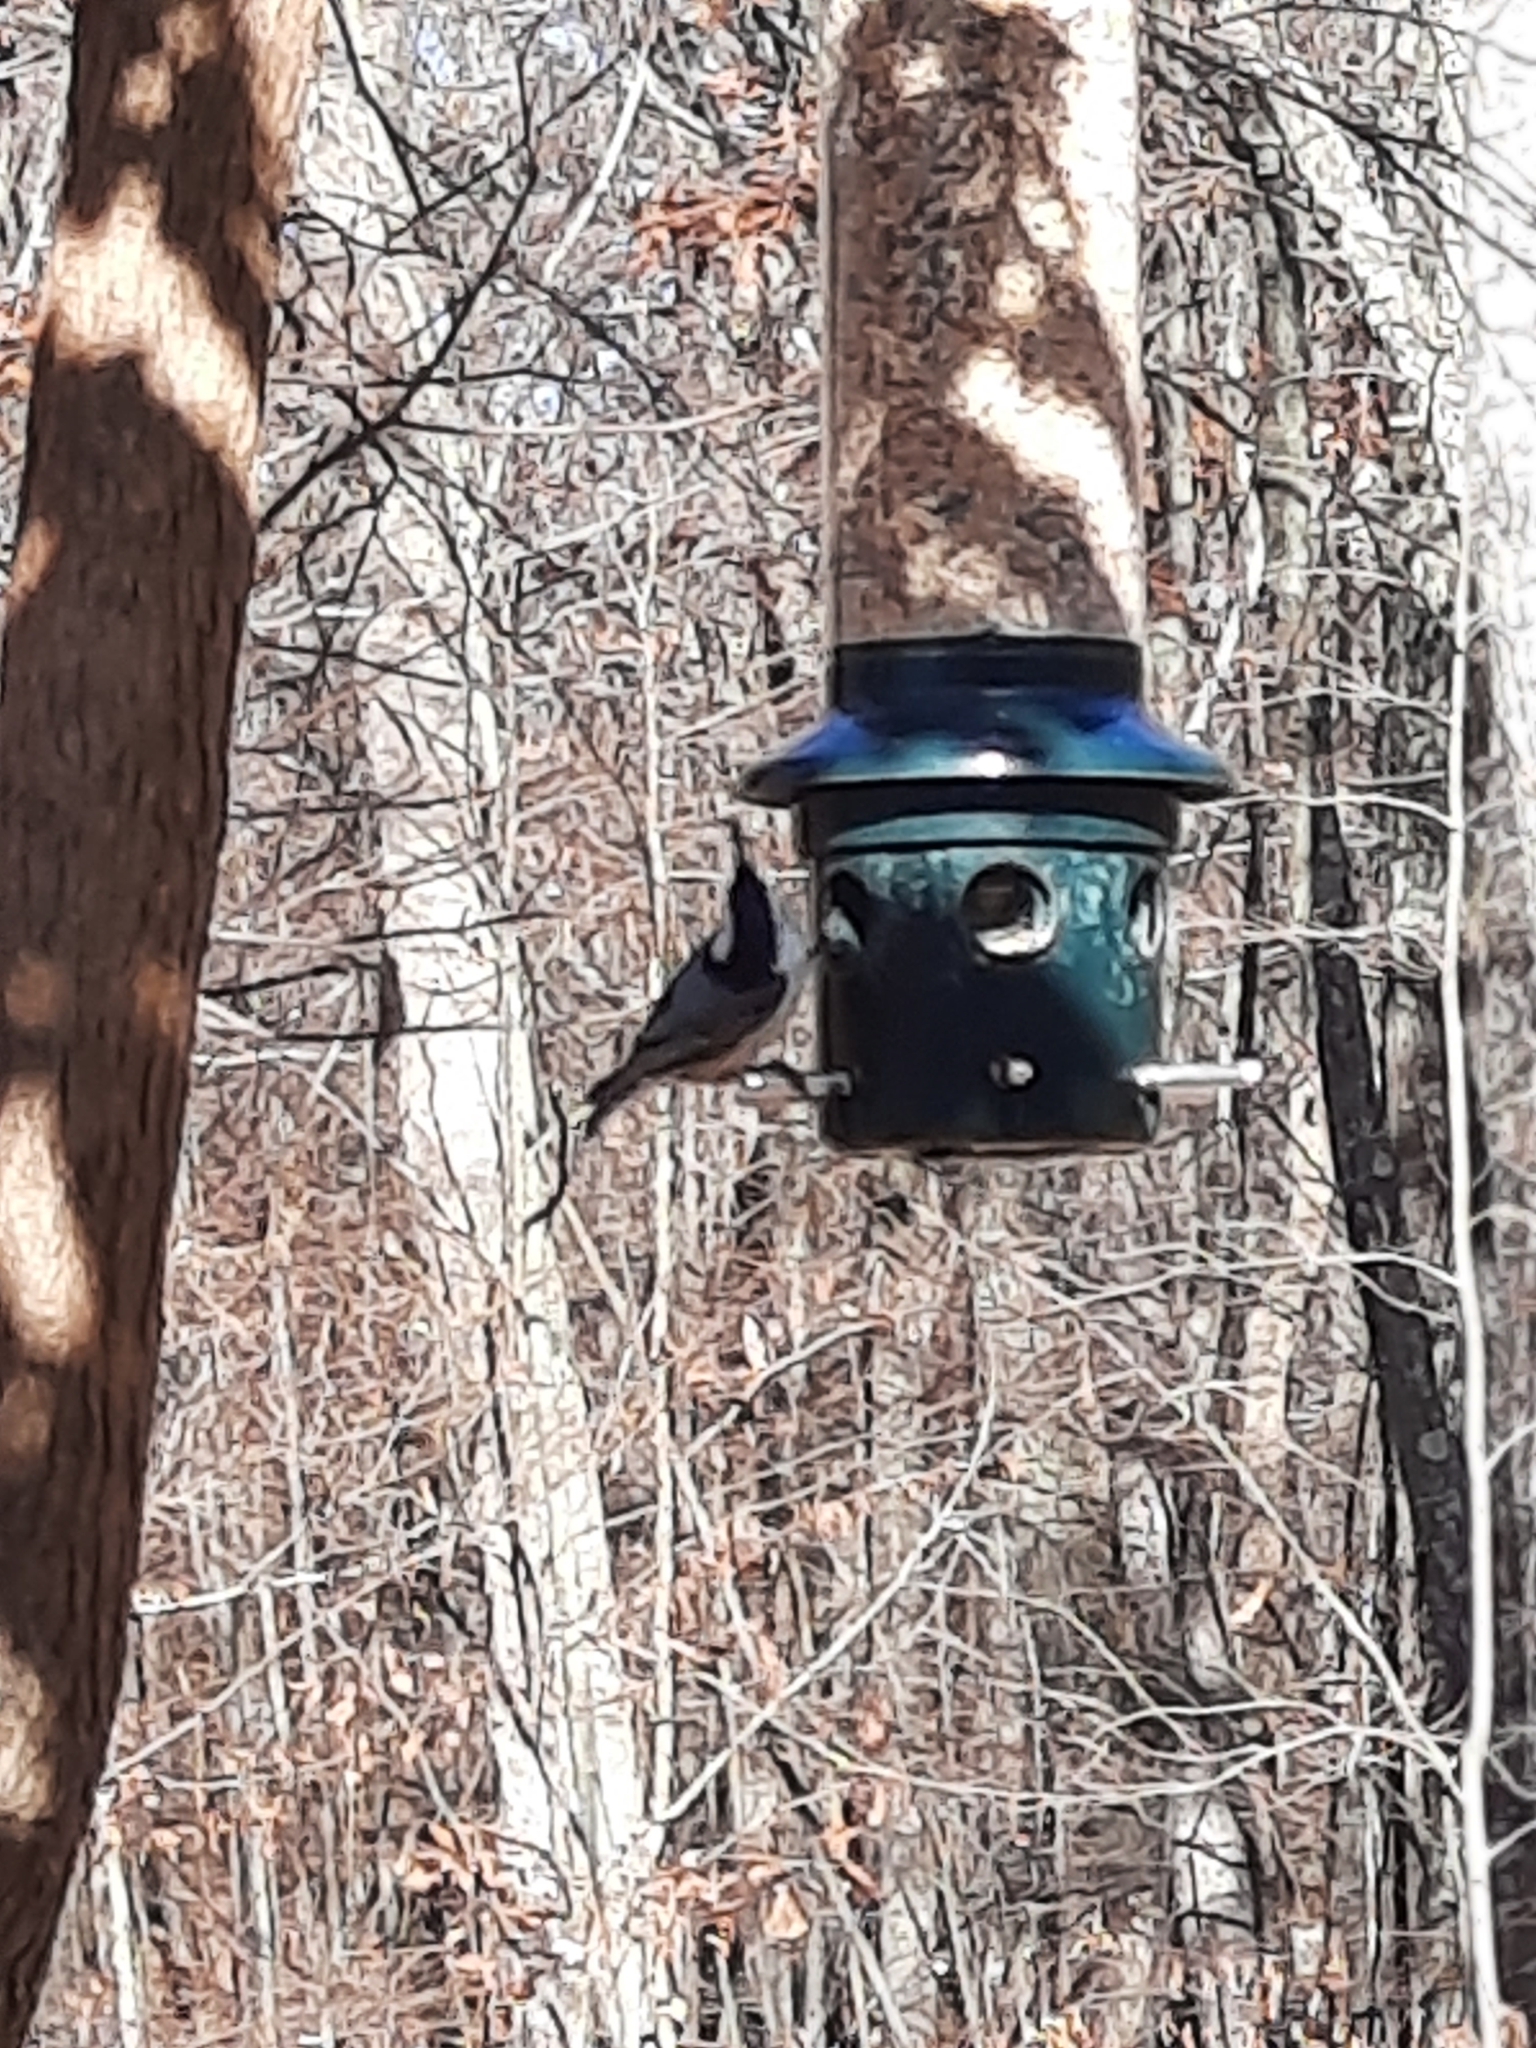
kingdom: Animalia
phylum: Chordata
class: Aves
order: Passeriformes
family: Sittidae
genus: Sitta
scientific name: Sitta carolinensis
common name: White-breasted nuthatch
